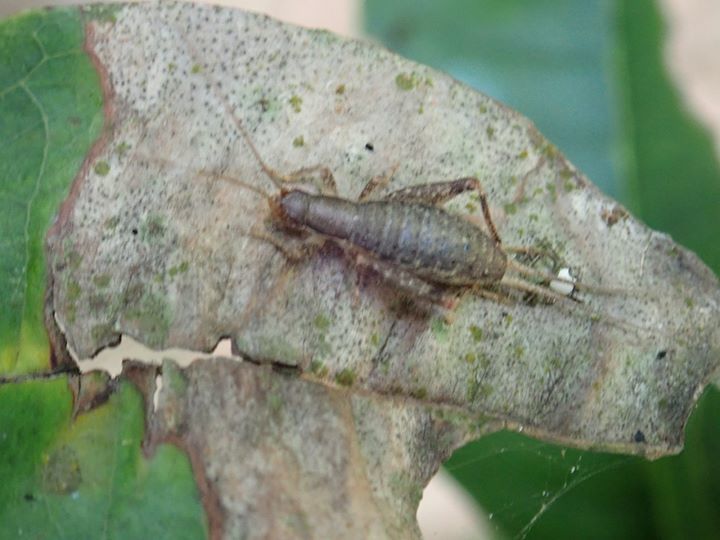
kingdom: Animalia
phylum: Arthropoda
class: Insecta
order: Orthoptera
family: Mogoplistidae
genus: Ornebius
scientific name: Ornebius infuscatus
